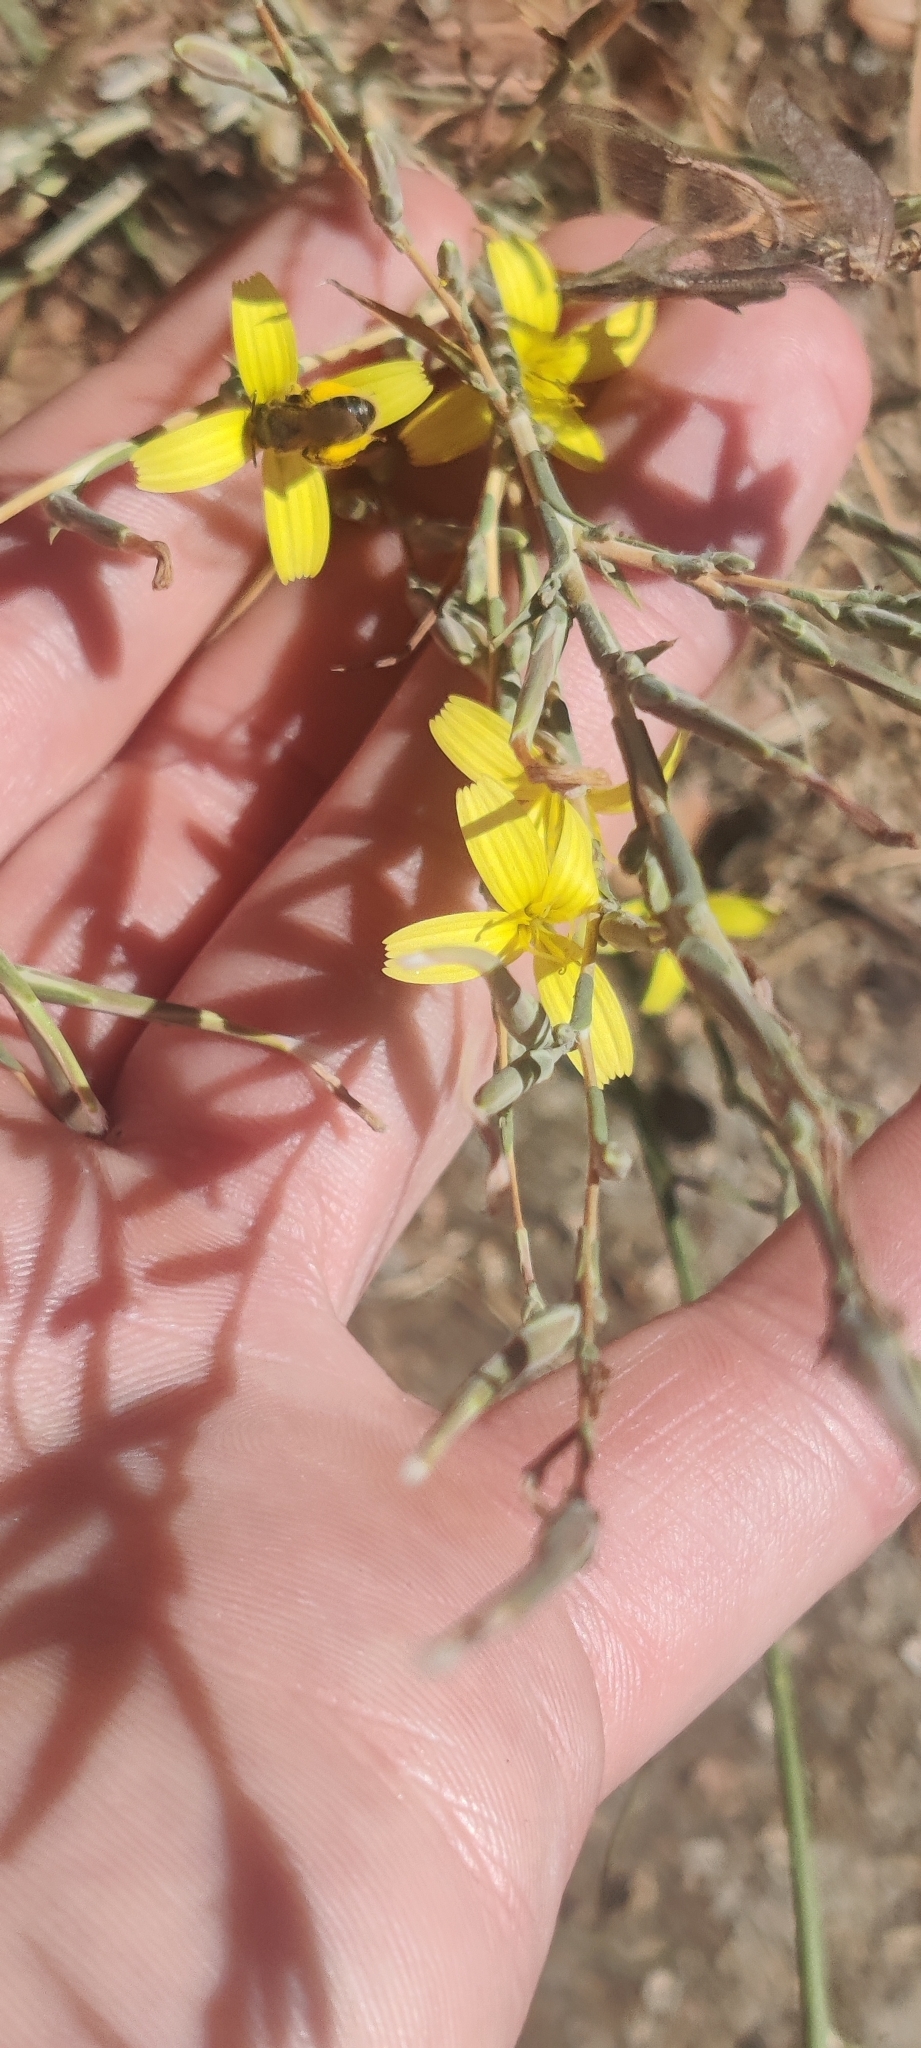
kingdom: Plantae
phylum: Tracheophyta
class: Magnoliopsida
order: Asterales
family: Asteraceae
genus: Lactuca
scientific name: Lactuca viminea
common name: Pliant lettuce
